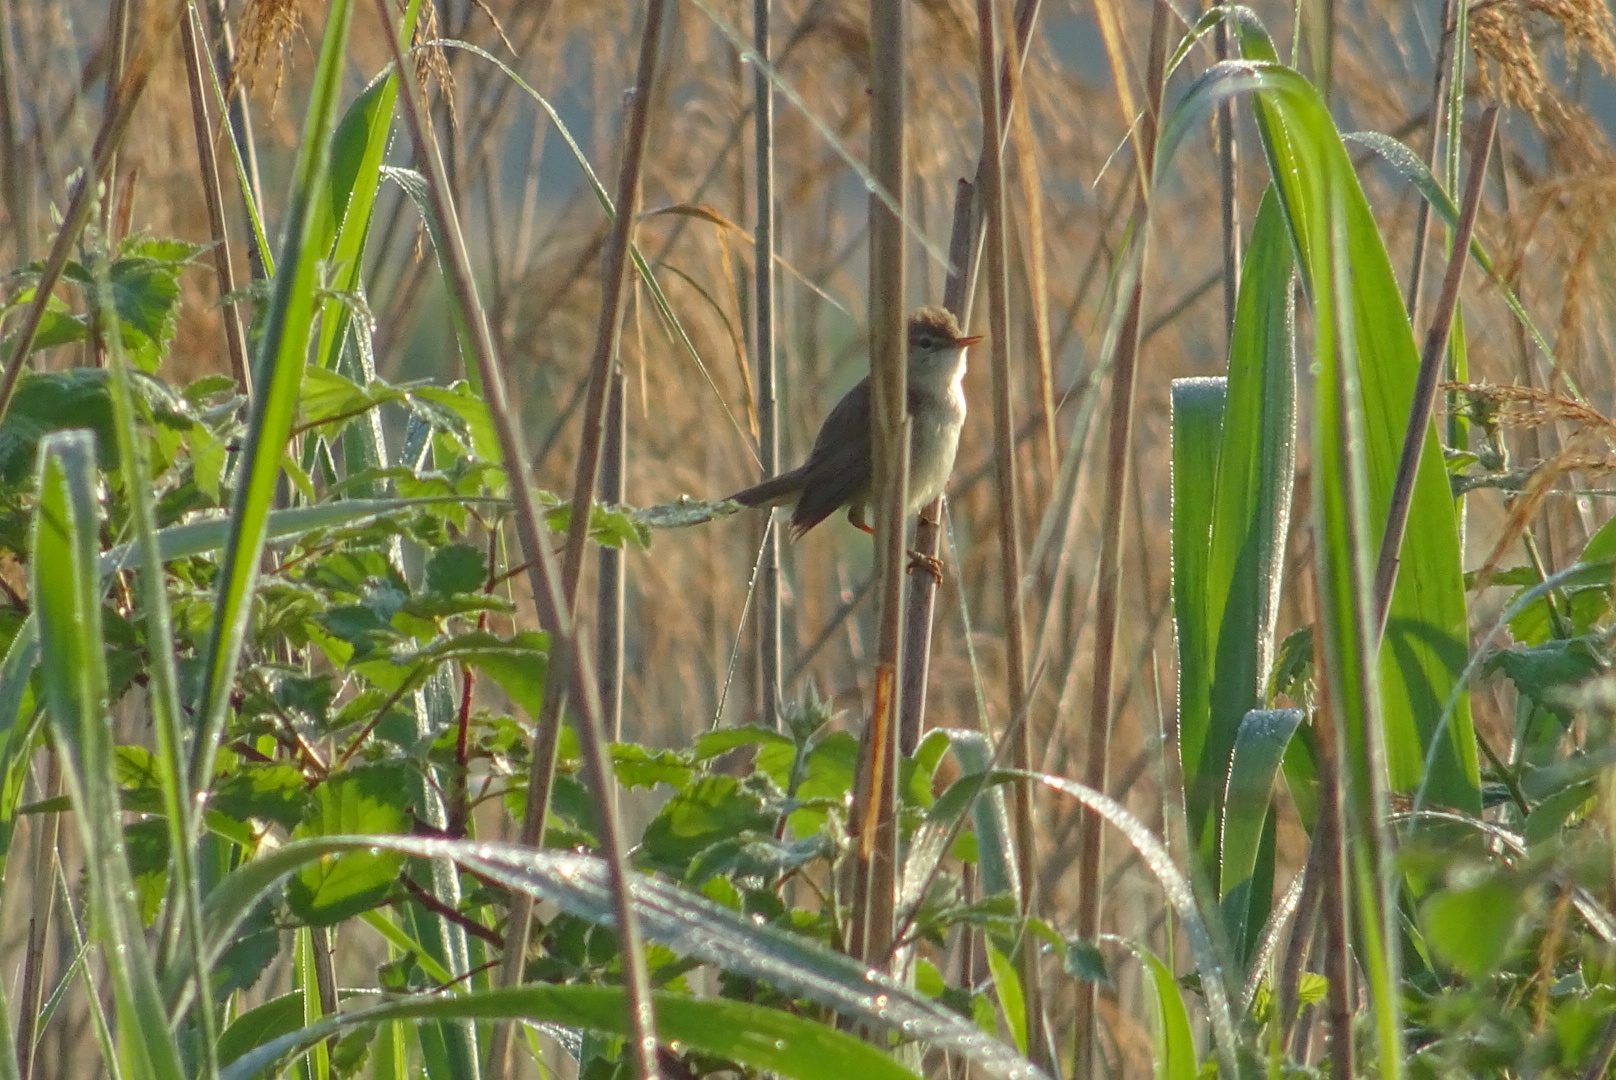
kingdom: Animalia
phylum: Chordata
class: Aves
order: Passeriformes
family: Acrocephalidae
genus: Acrocephalus
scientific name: Acrocephalus scirpaceus
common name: Eurasian reed warbler
